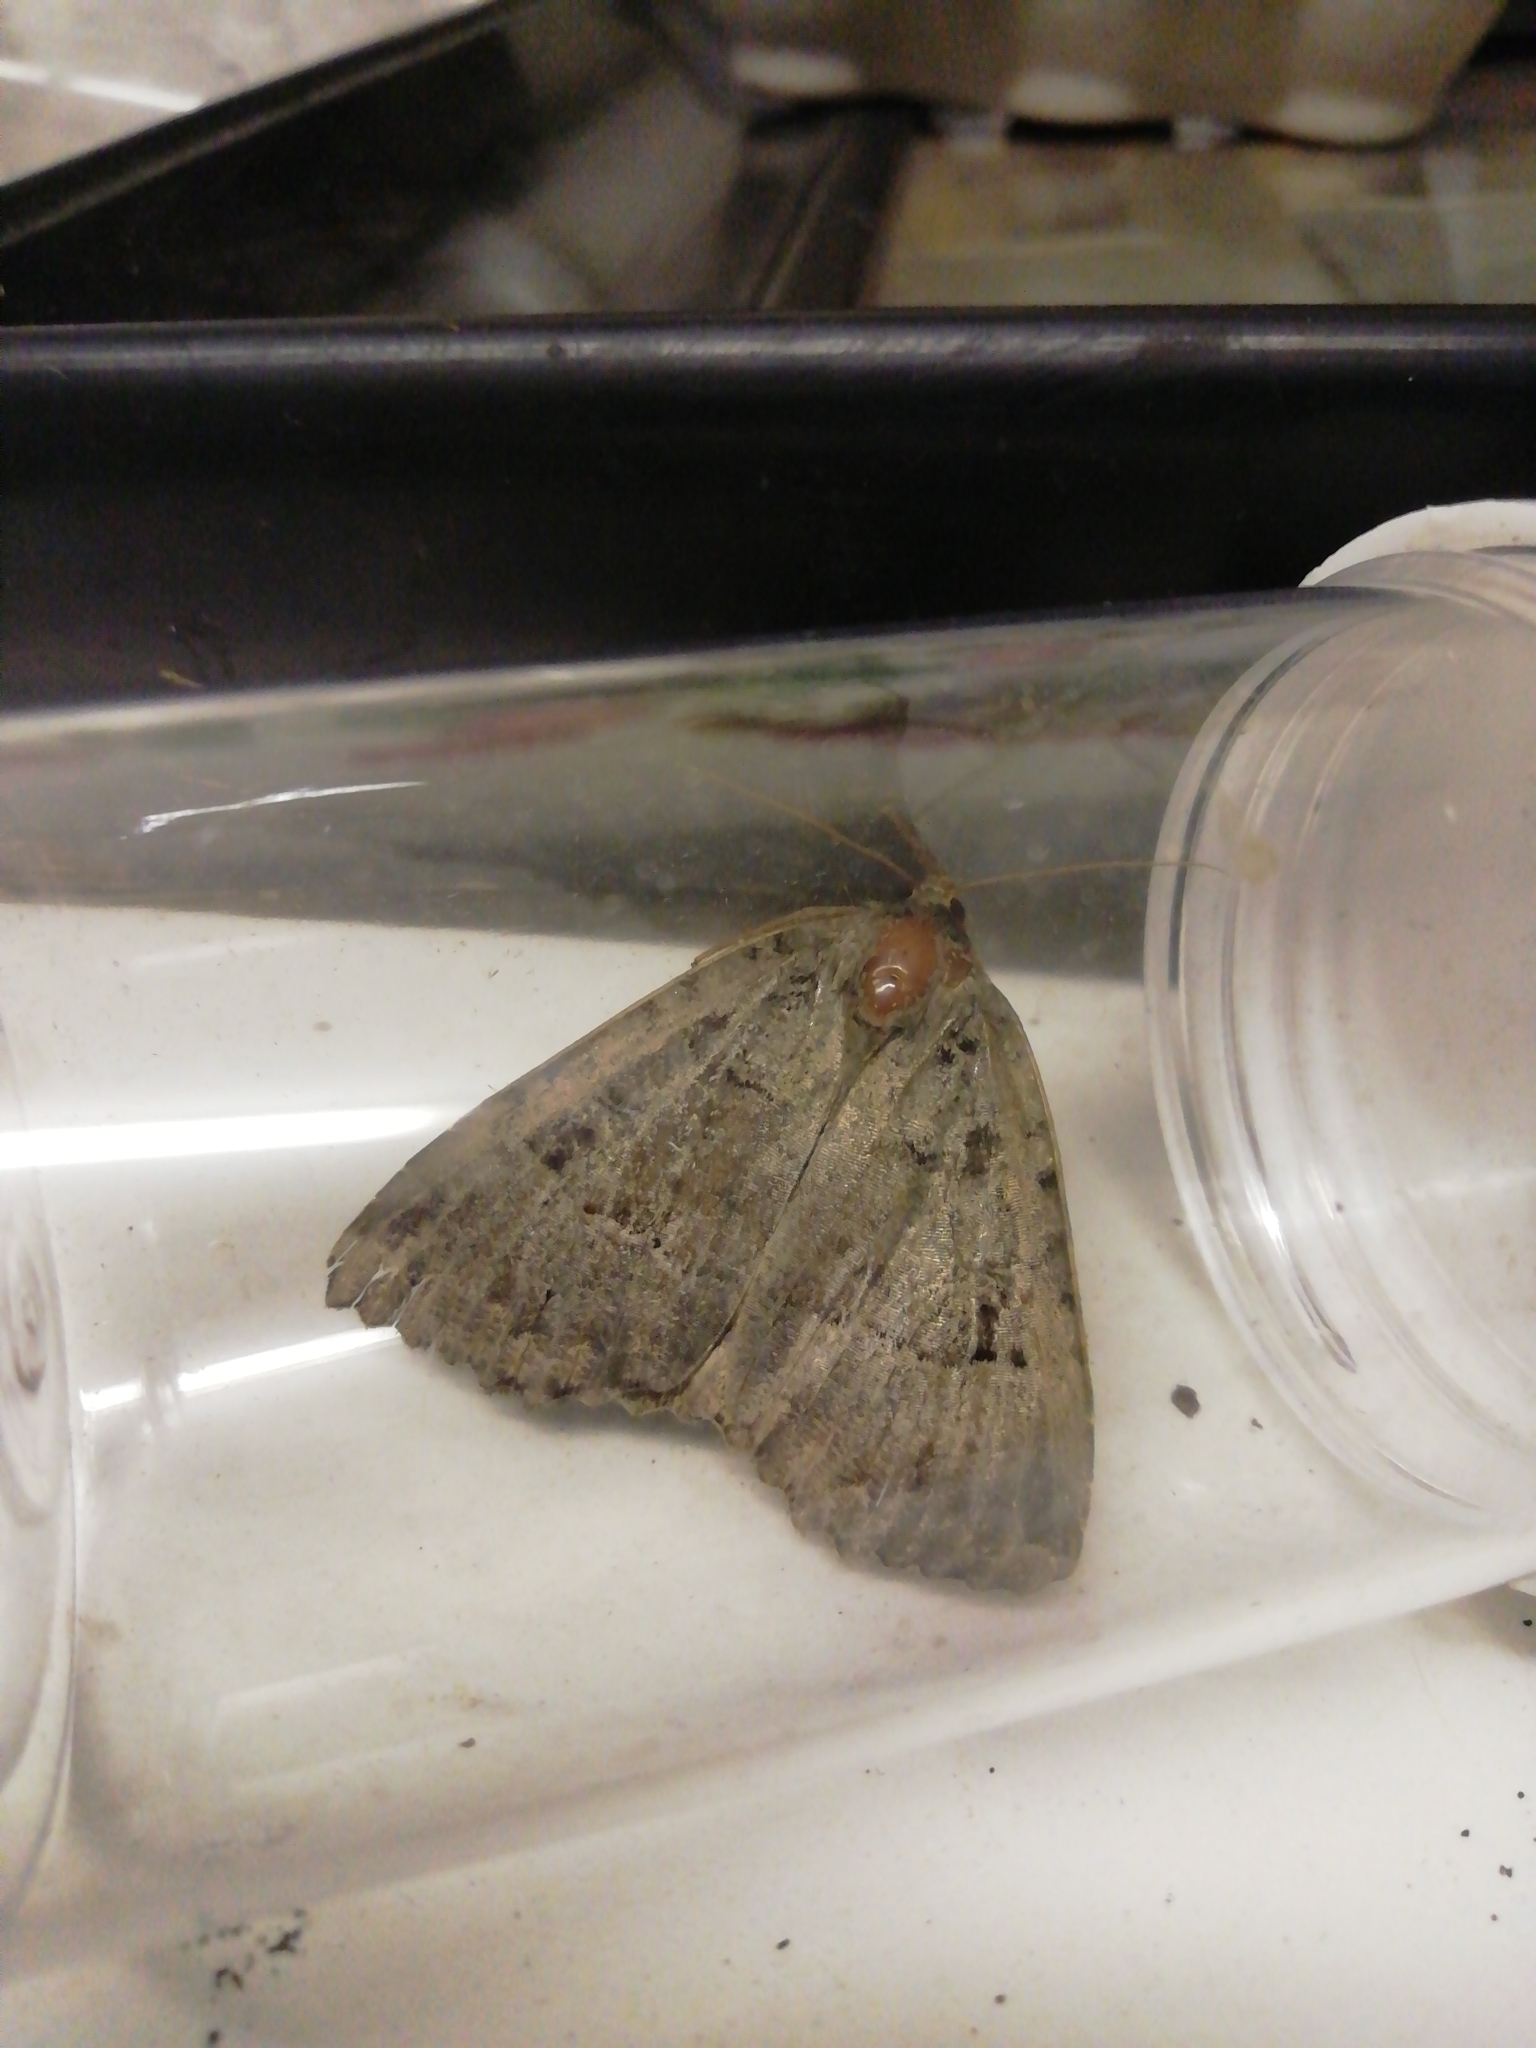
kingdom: Animalia
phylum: Arthropoda
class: Insecta
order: Lepidoptera
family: Noctuidae
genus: Mormo
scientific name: Mormo maura
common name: Old lady
